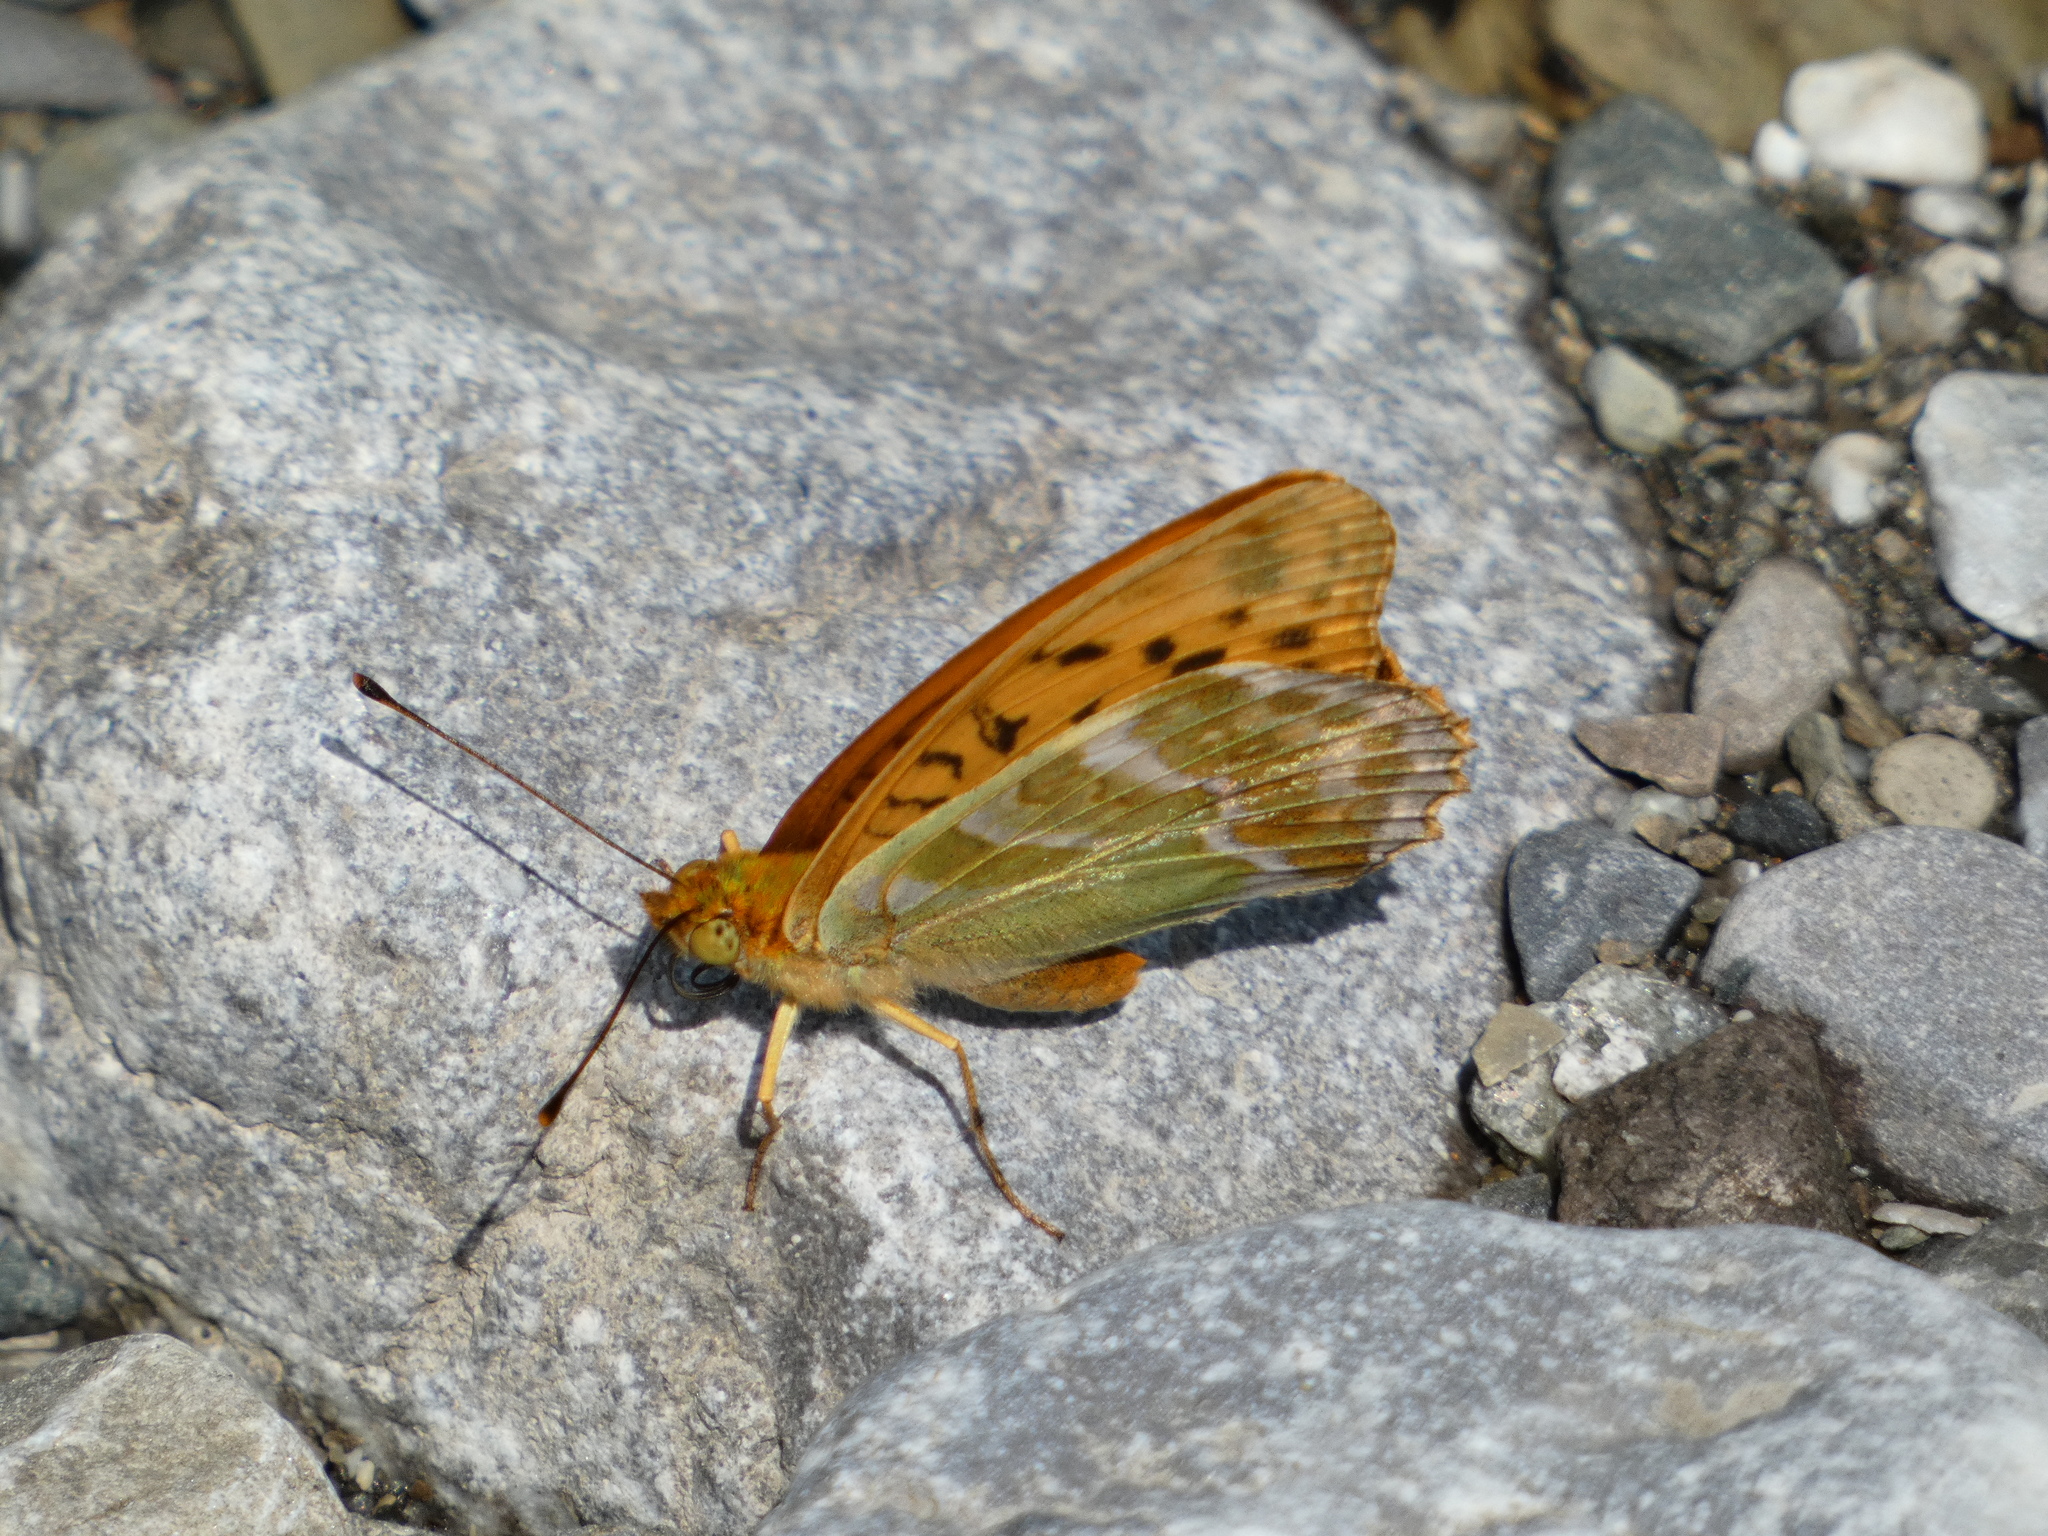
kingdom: Animalia
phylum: Arthropoda
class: Insecta
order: Lepidoptera
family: Nymphalidae
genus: Argynnis
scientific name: Argynnis paphia
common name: Silver-washed fritillary
